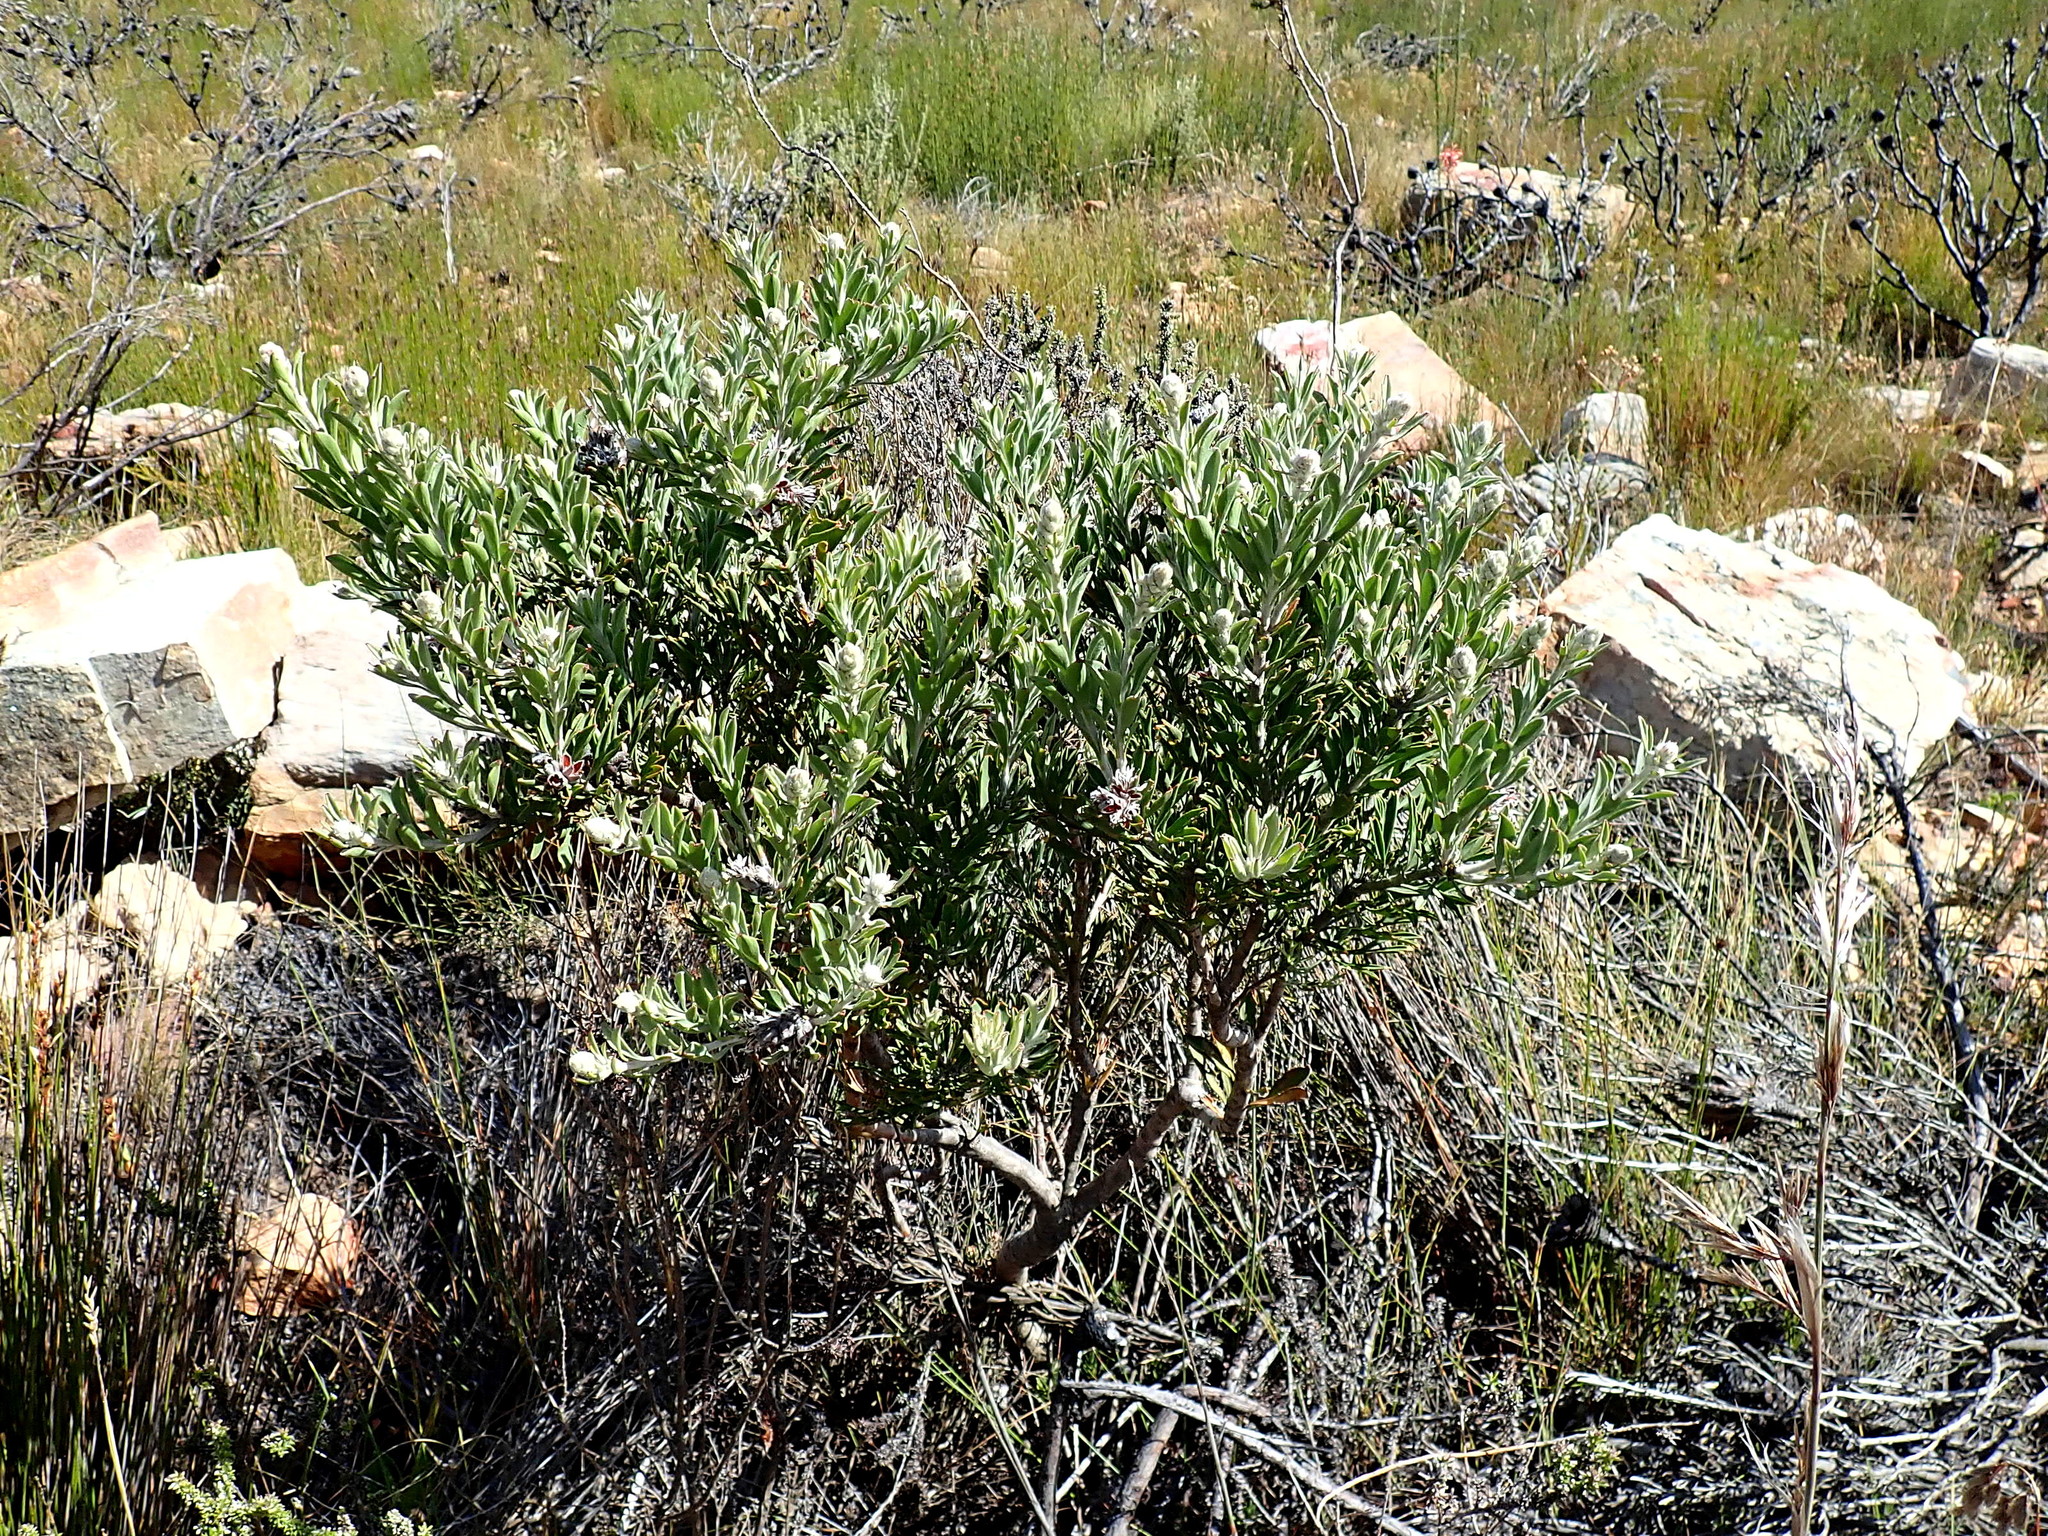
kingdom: Plantae
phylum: Tracheophyta
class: Magnoliopsida
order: Proteales
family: Proteaceae
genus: Paranomus
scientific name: Paranomus dregei
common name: Scented sceptre
